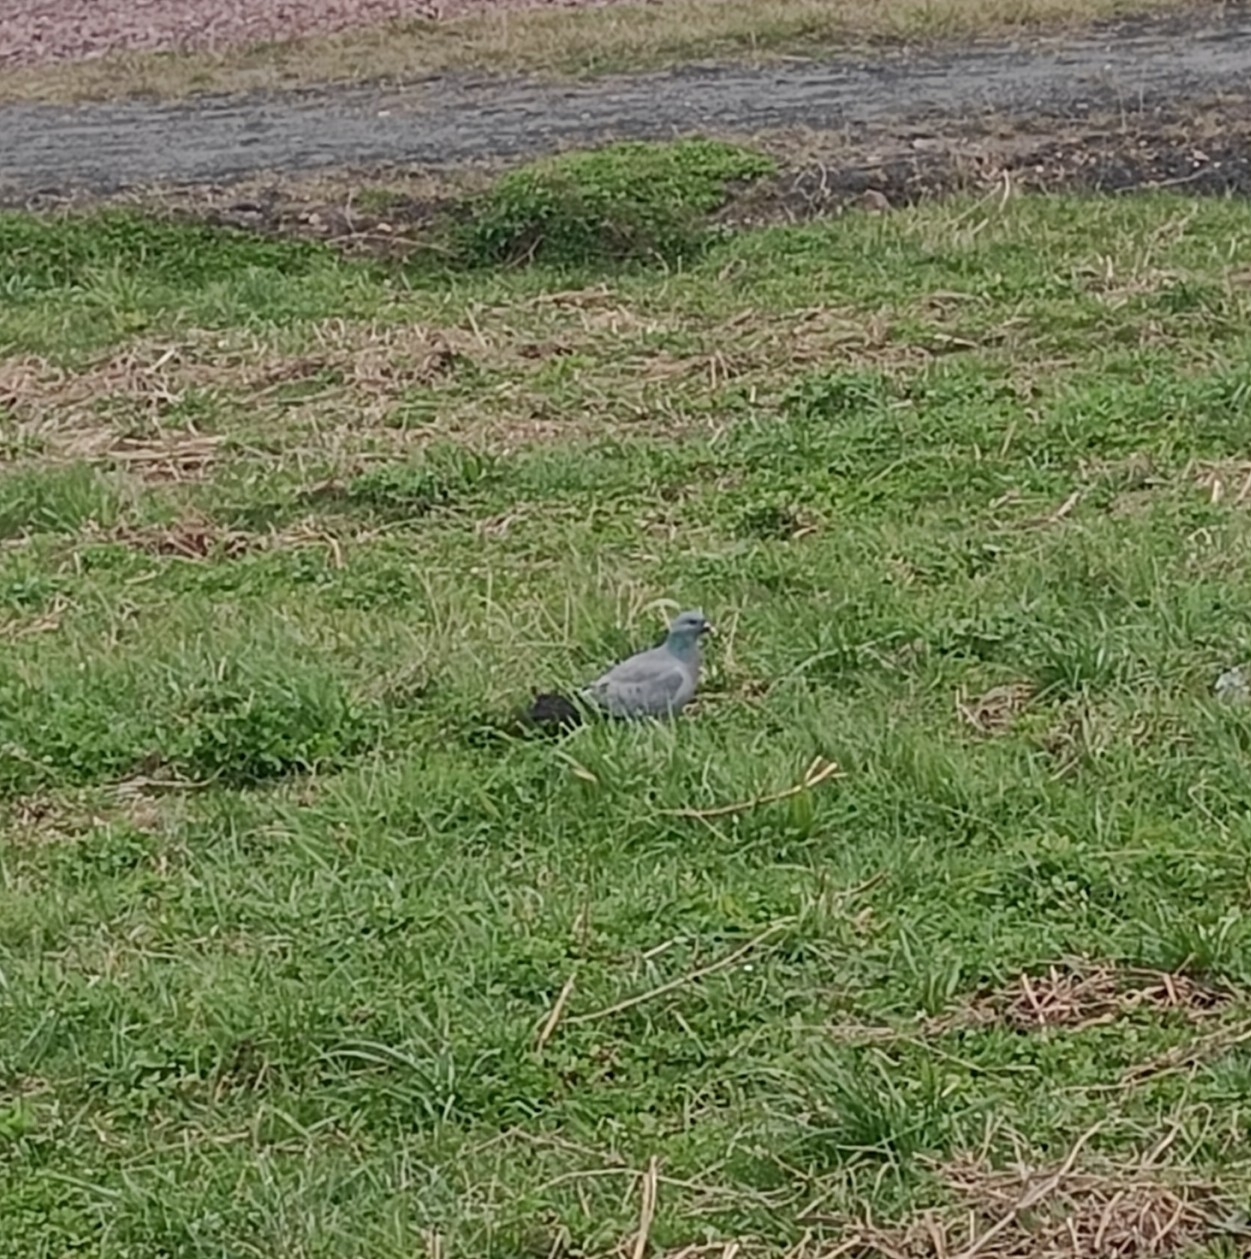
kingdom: Animalia
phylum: Chordata
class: Aves
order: Columbiformes
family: Columbidae
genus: Columba
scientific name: Columba oenas
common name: Stock dove
